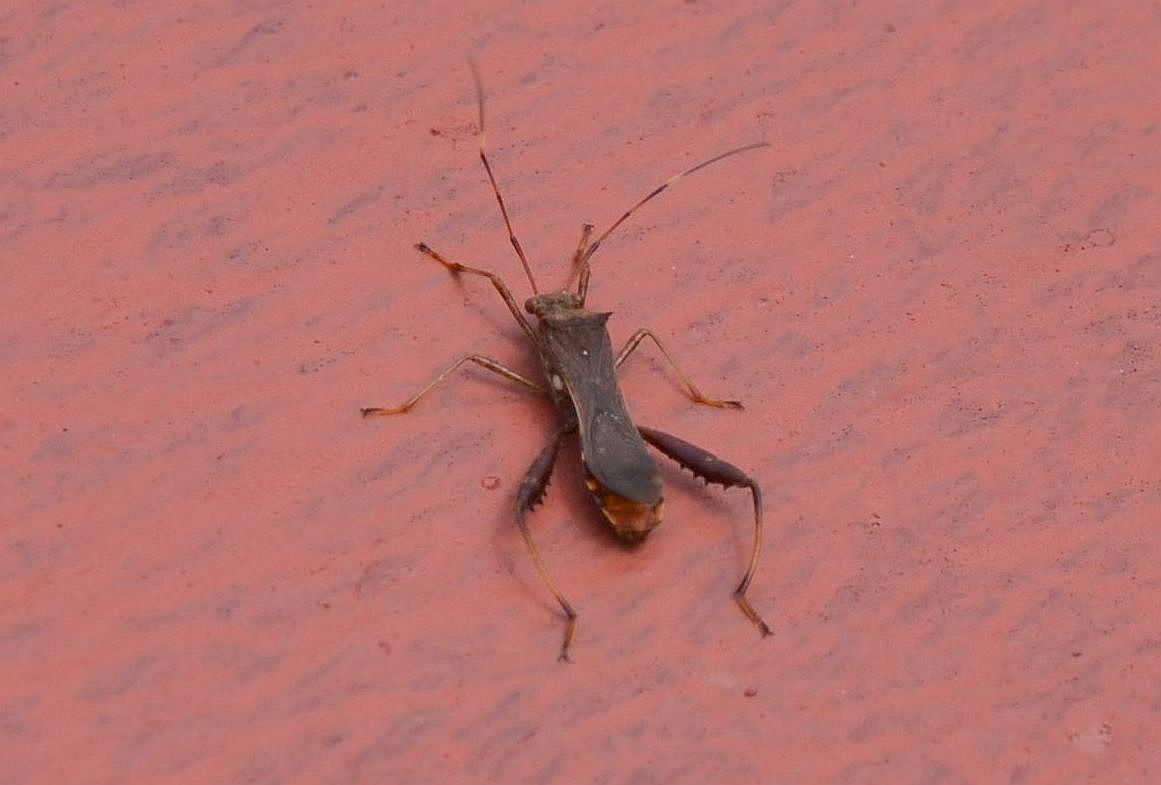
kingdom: Animalia
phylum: Arthropoda
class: Insecta
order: Hemiptera
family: Alydidae
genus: Riptortus
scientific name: Riptortus pedestris
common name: Bean bug
